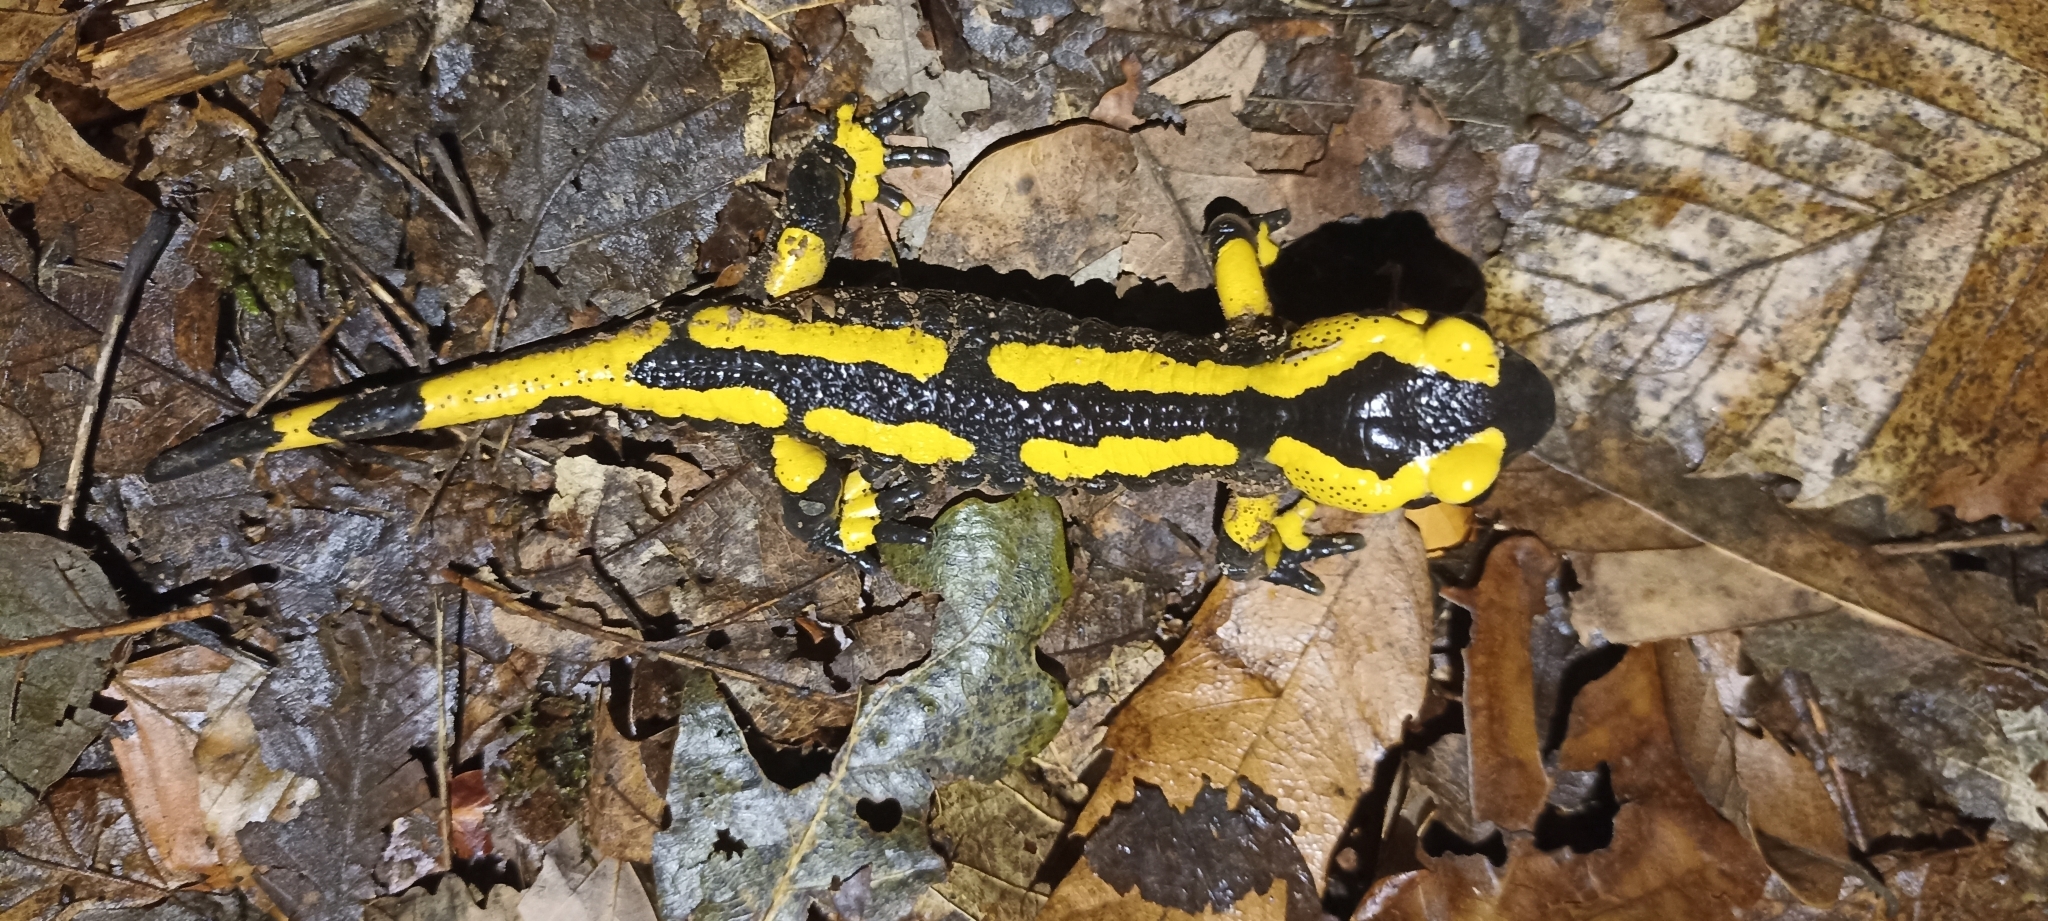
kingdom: Animalia
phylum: Chordata
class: Amphibia
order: Caudata
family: Salamandridae
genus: Salamandra
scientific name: Salamandra salamandra
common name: Fire salamander
